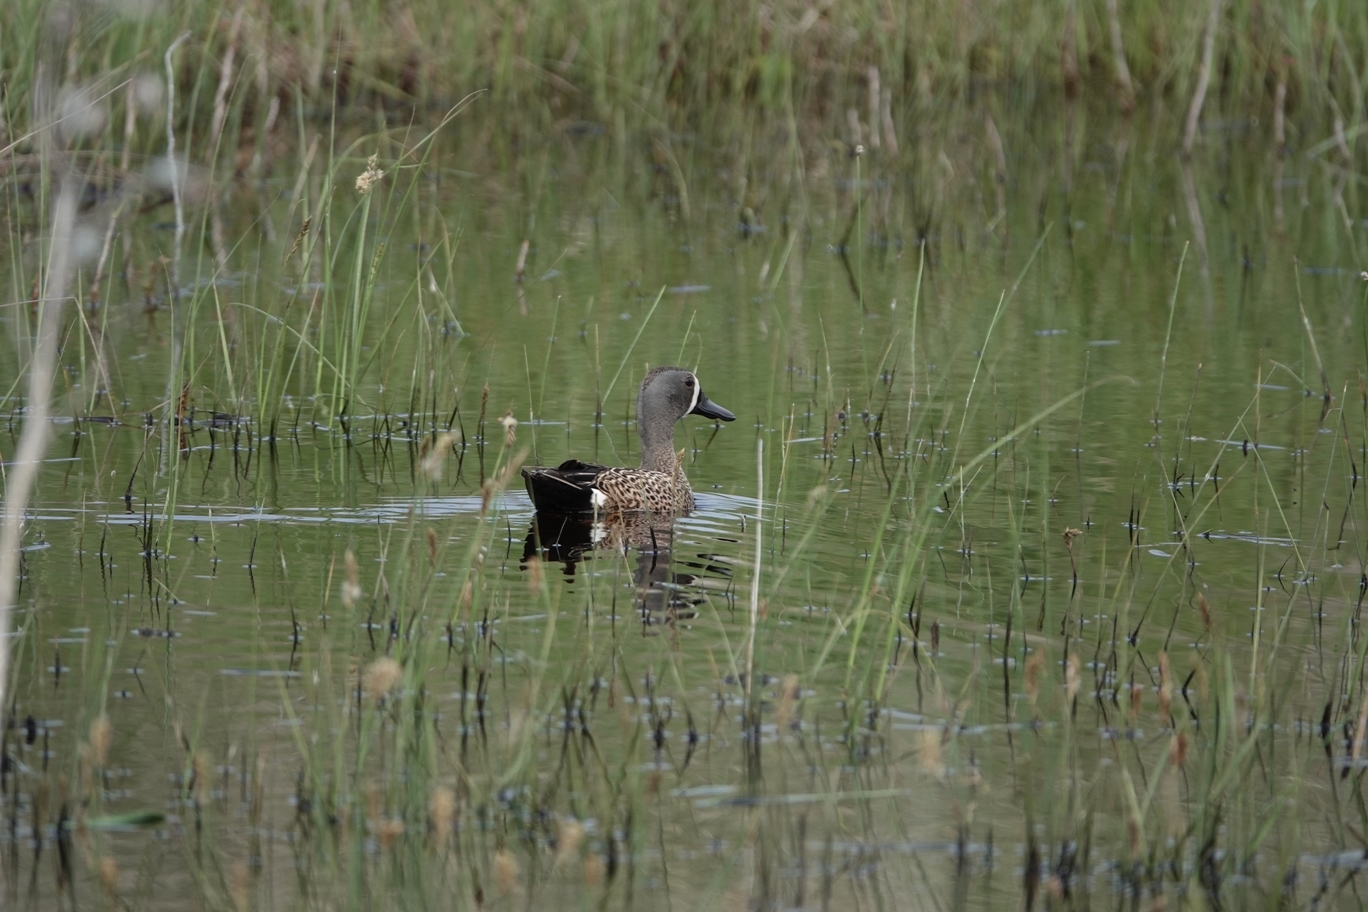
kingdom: Animalia
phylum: Chordata
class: Aves
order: Anseriformes
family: Anatidae
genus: Spatula
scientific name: Spatula discors
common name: Blue-winged teal
